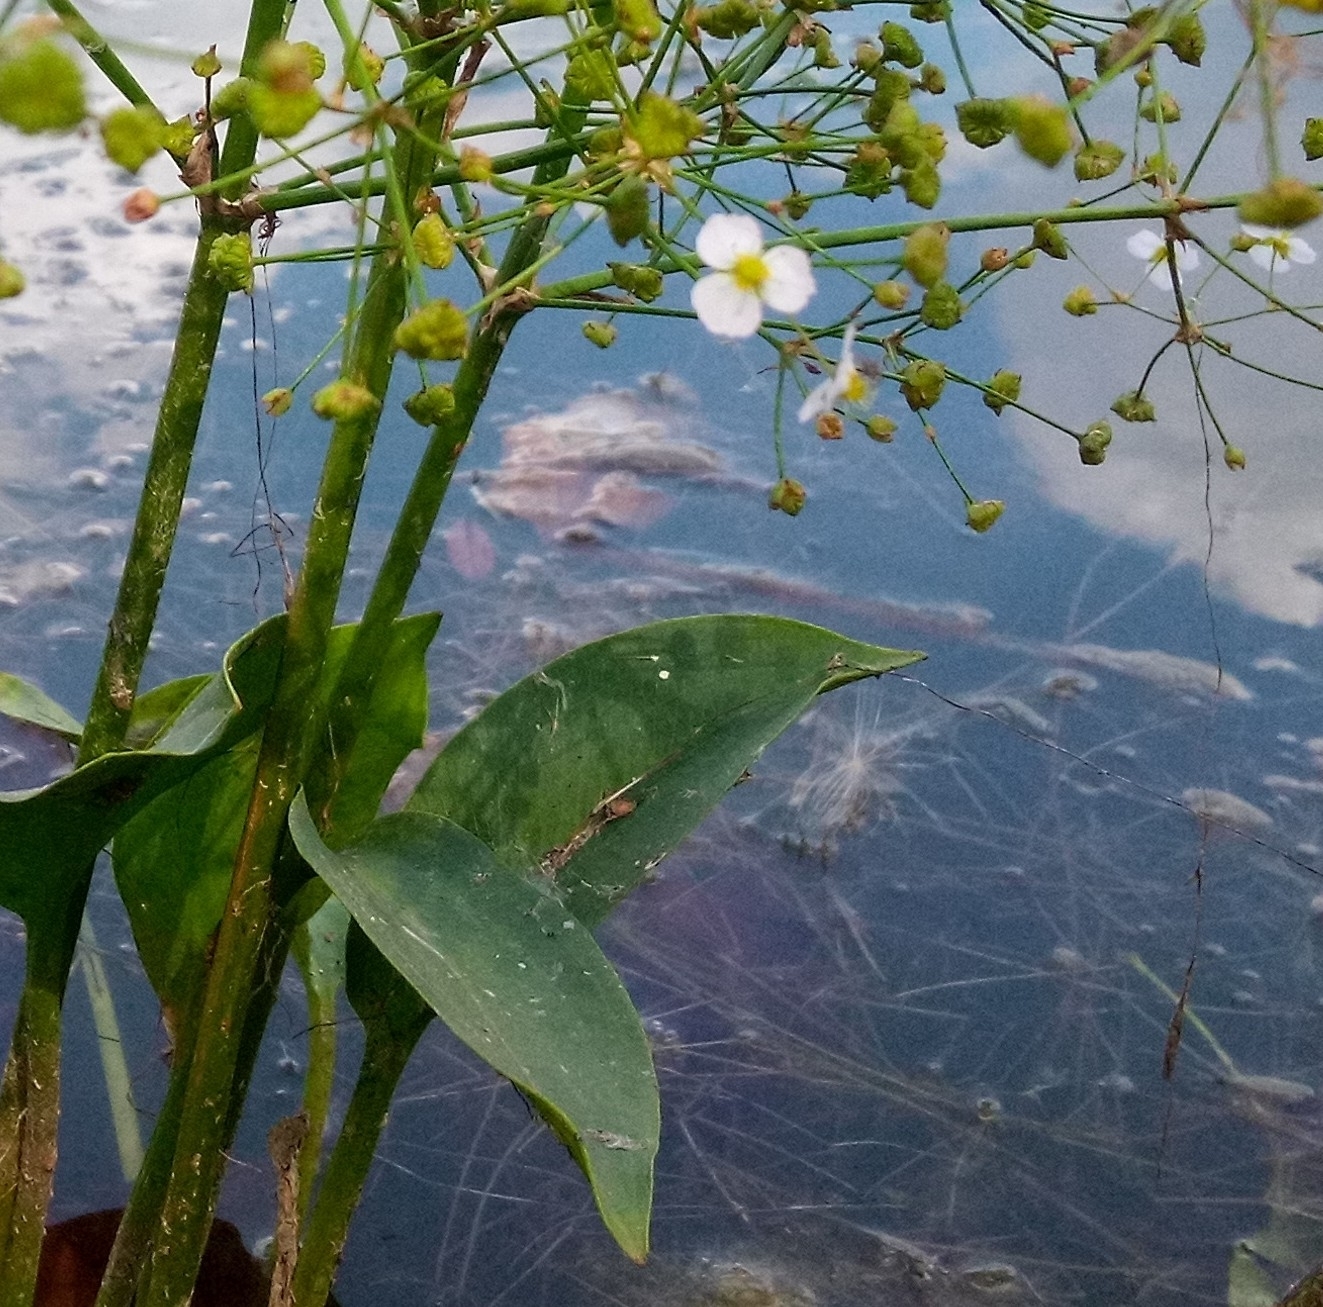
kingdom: Plantae
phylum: Tracheophyta
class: Liliopsida
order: Alismatales
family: Alismataceae
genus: Alisma
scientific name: Alisma plantago-aquatica
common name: Water-plantain
